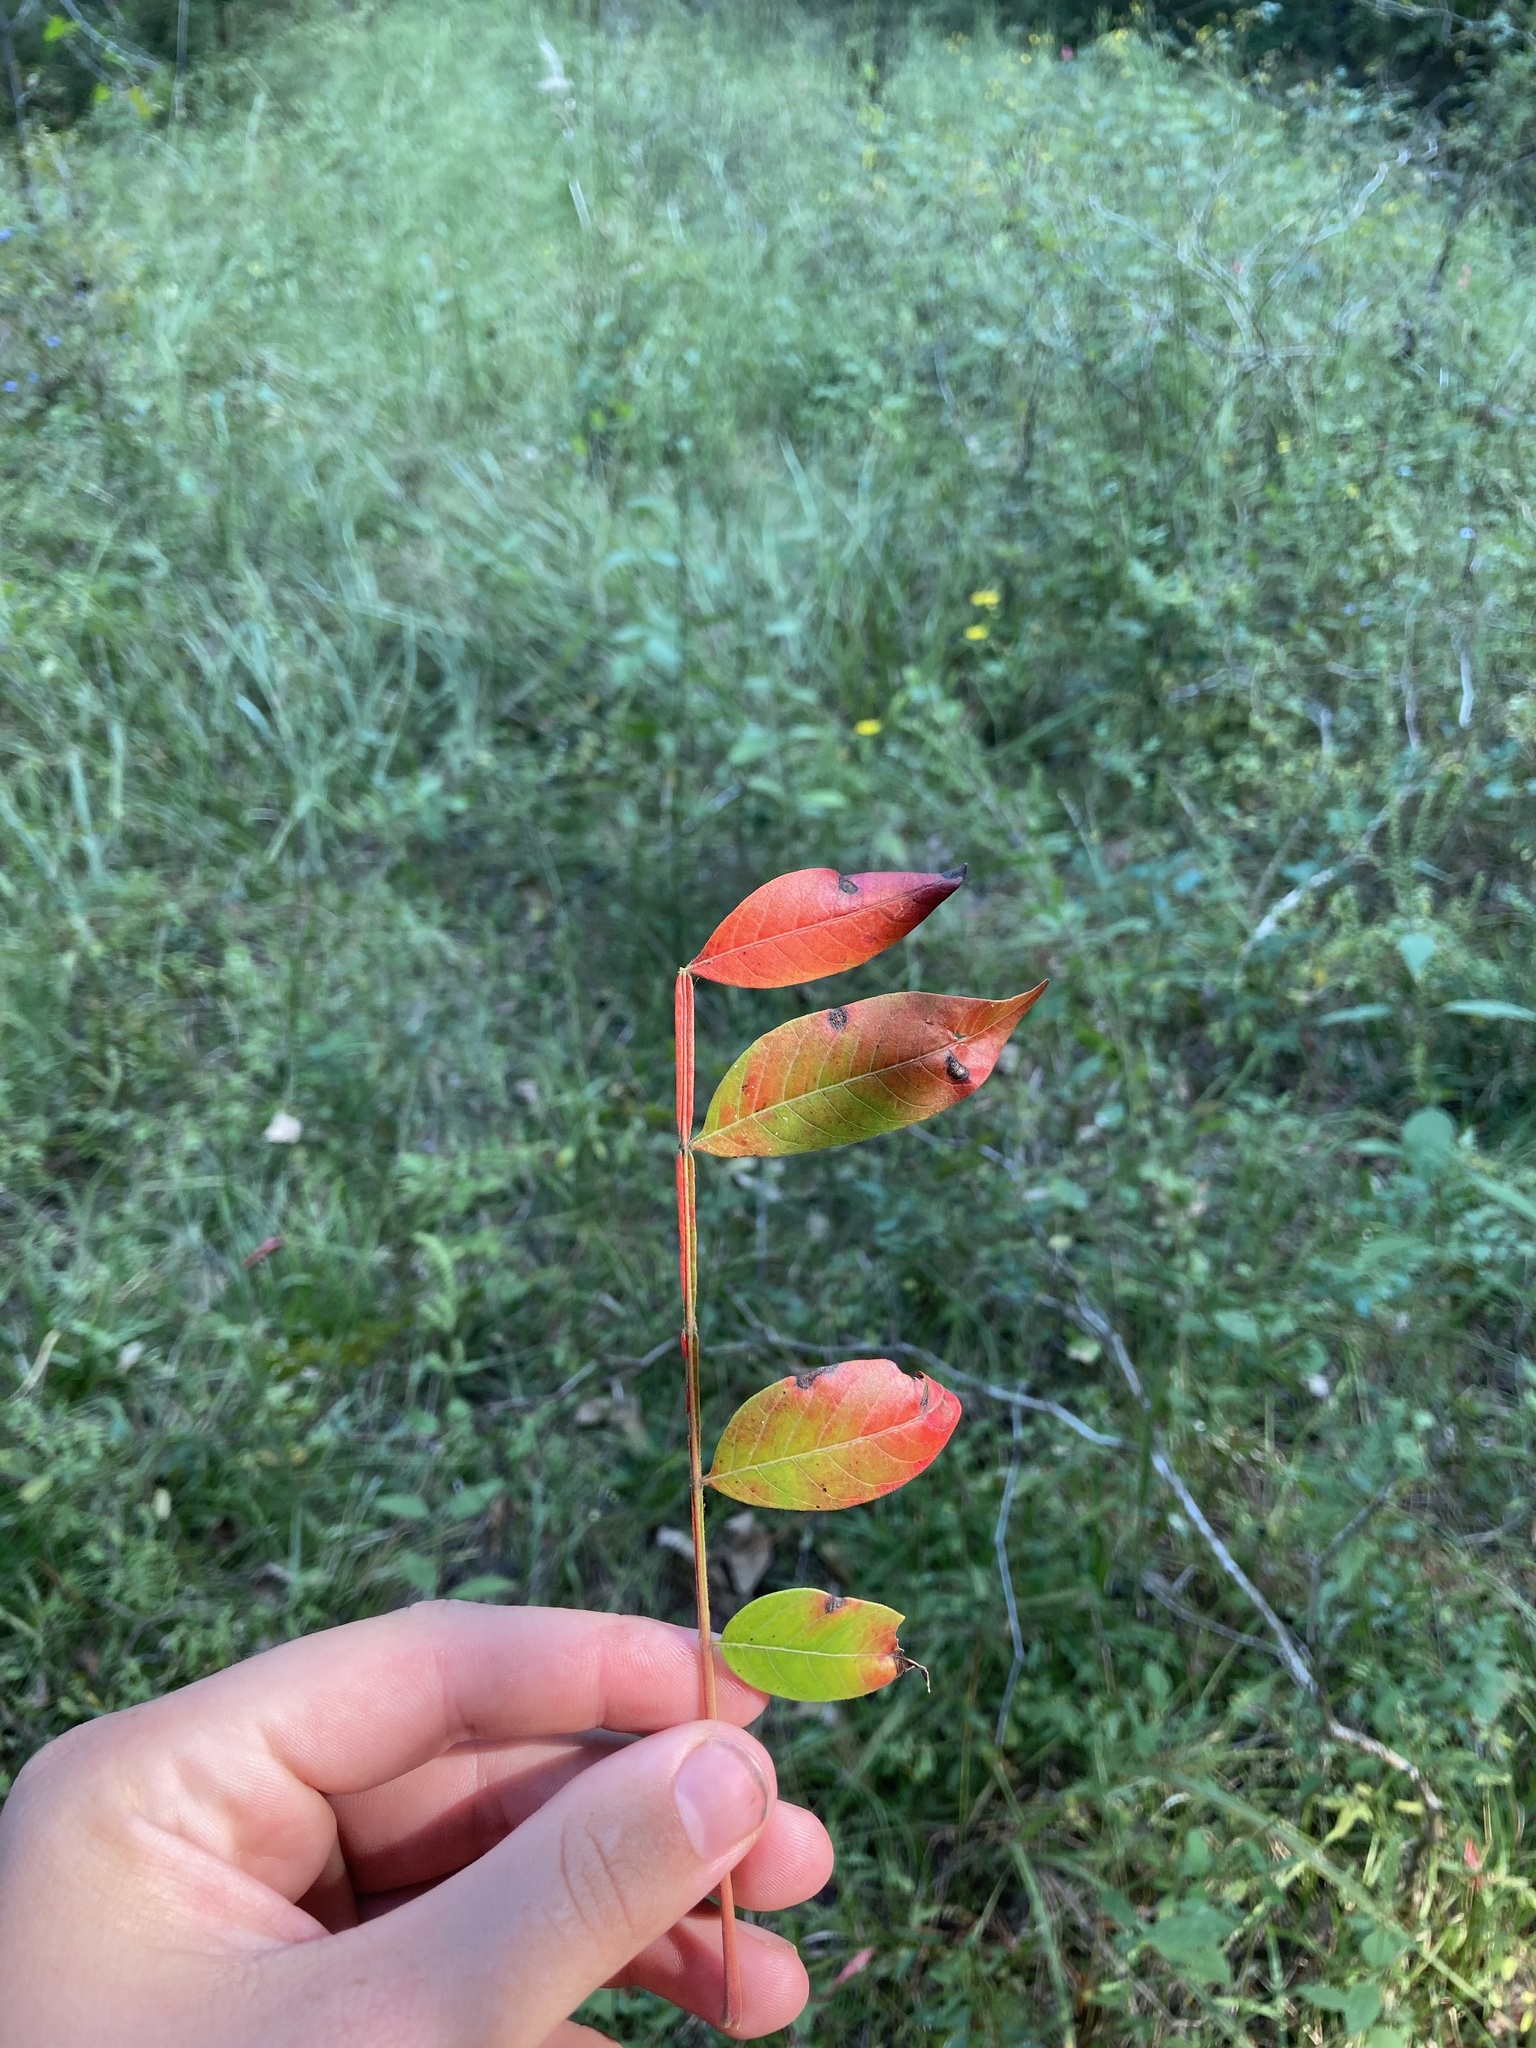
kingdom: Plantae
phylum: Tracheophyta
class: Magnoliopsida
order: Sapindales
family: Anacardiaceae
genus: Rhus
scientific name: Rhus copallina
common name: Shining sumac
